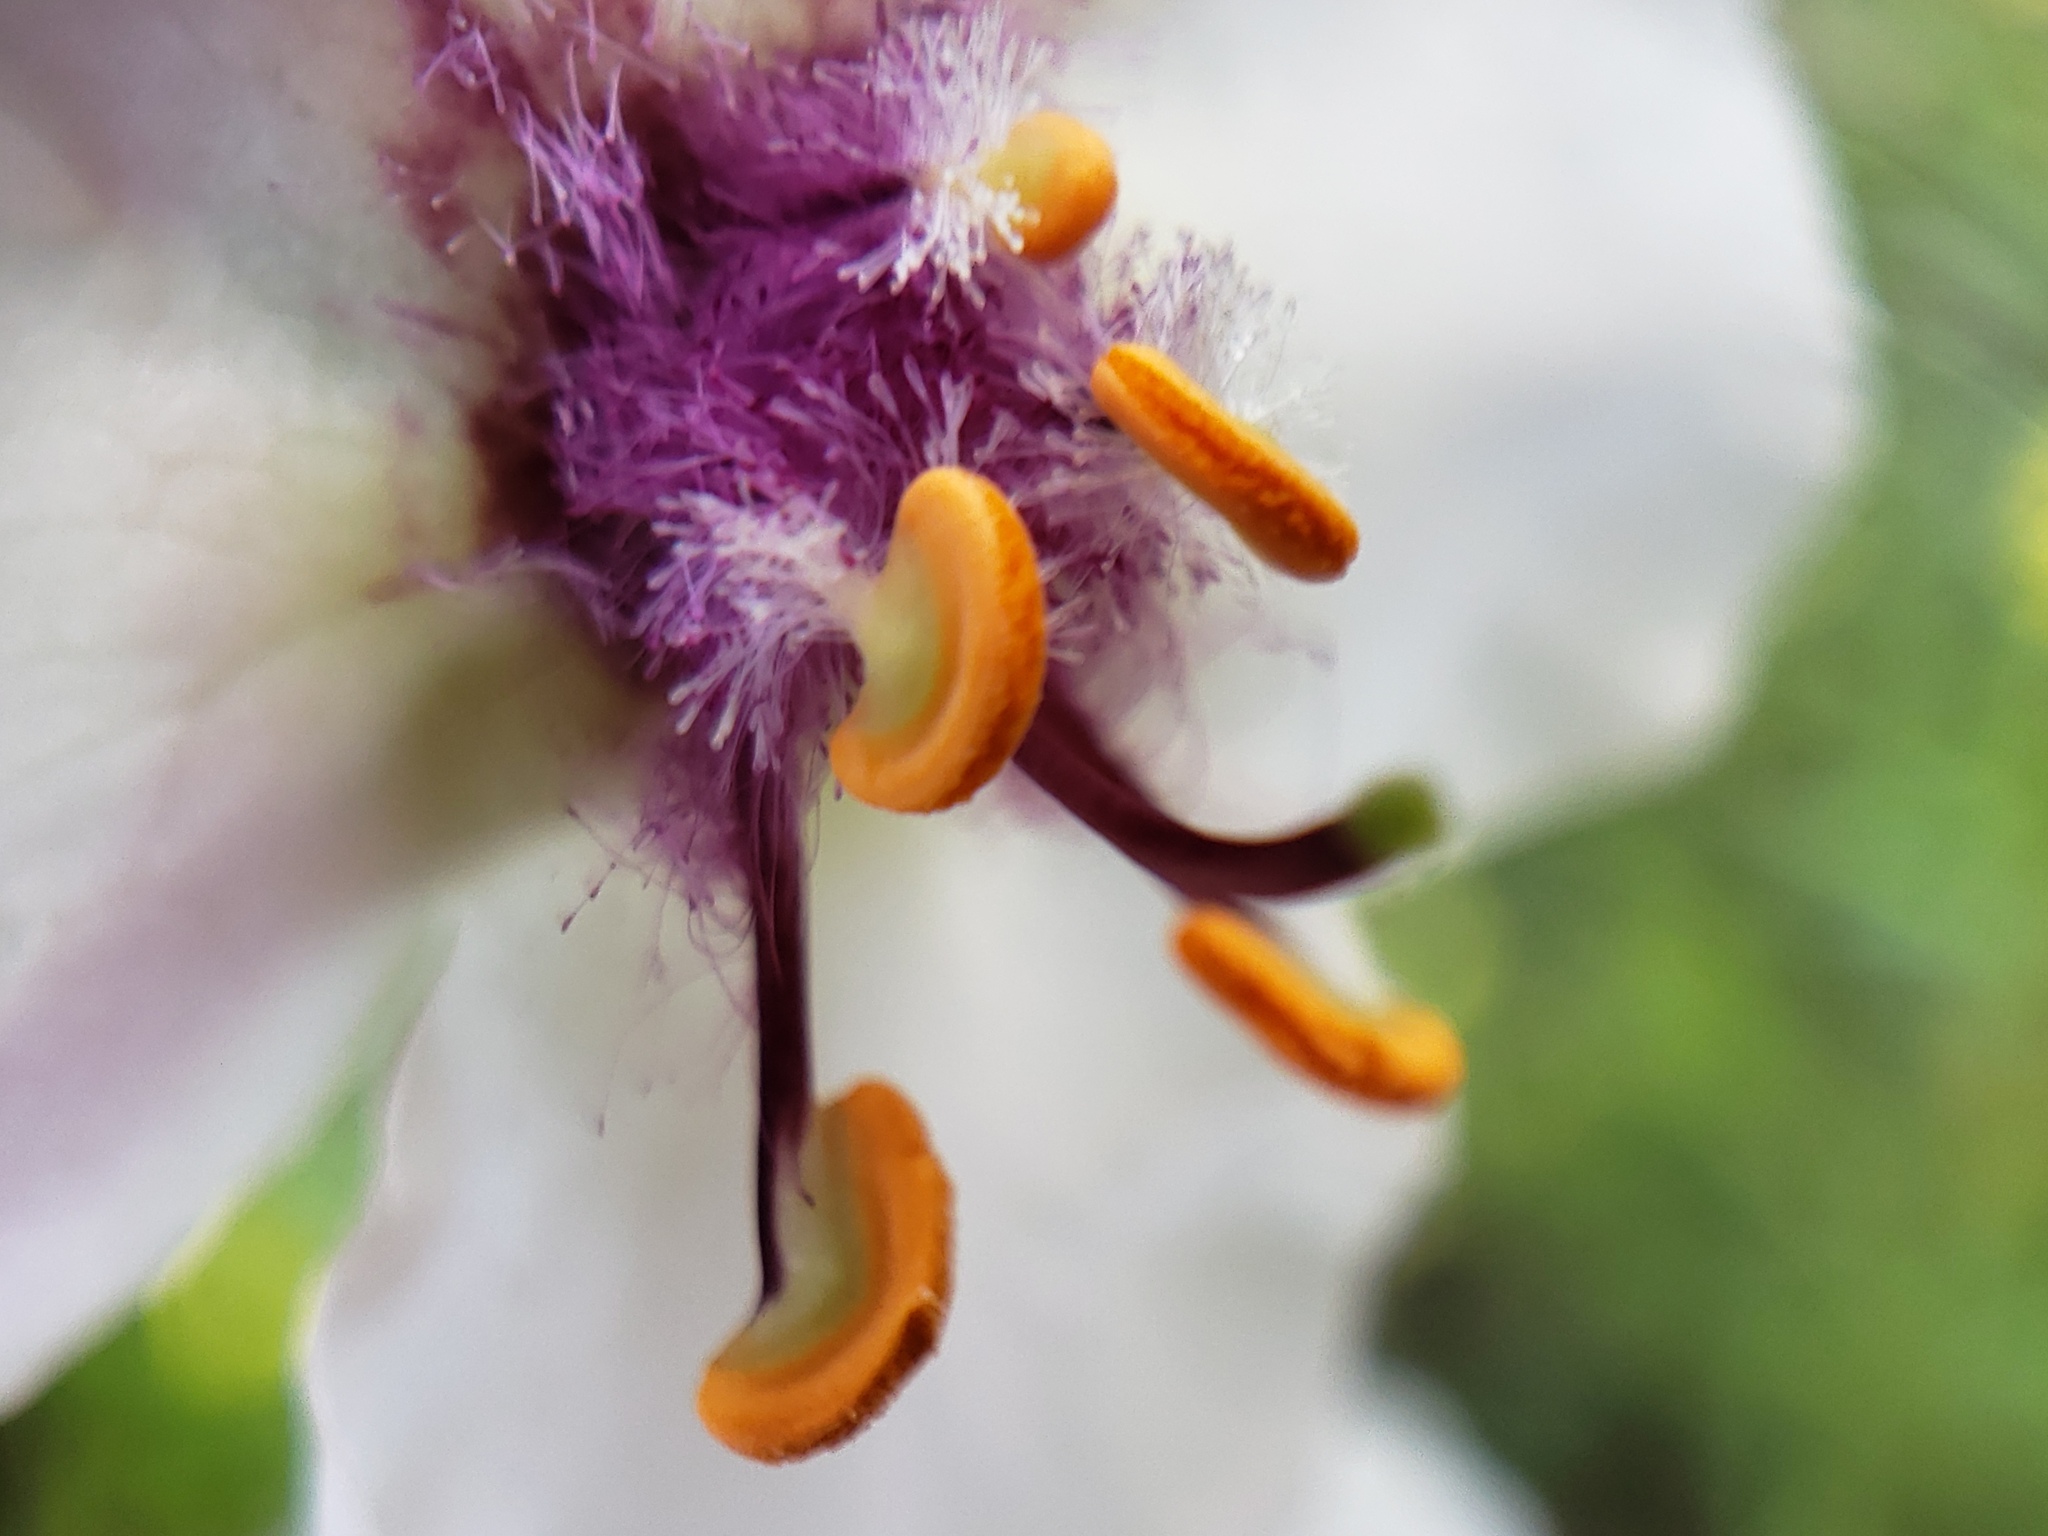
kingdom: Plantae
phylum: Tracheophyta
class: Magnoliopsida
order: Lamiales
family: Scrophulariaceae
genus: Verbascum
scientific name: Verbascum blattaria
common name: Moth mullein
